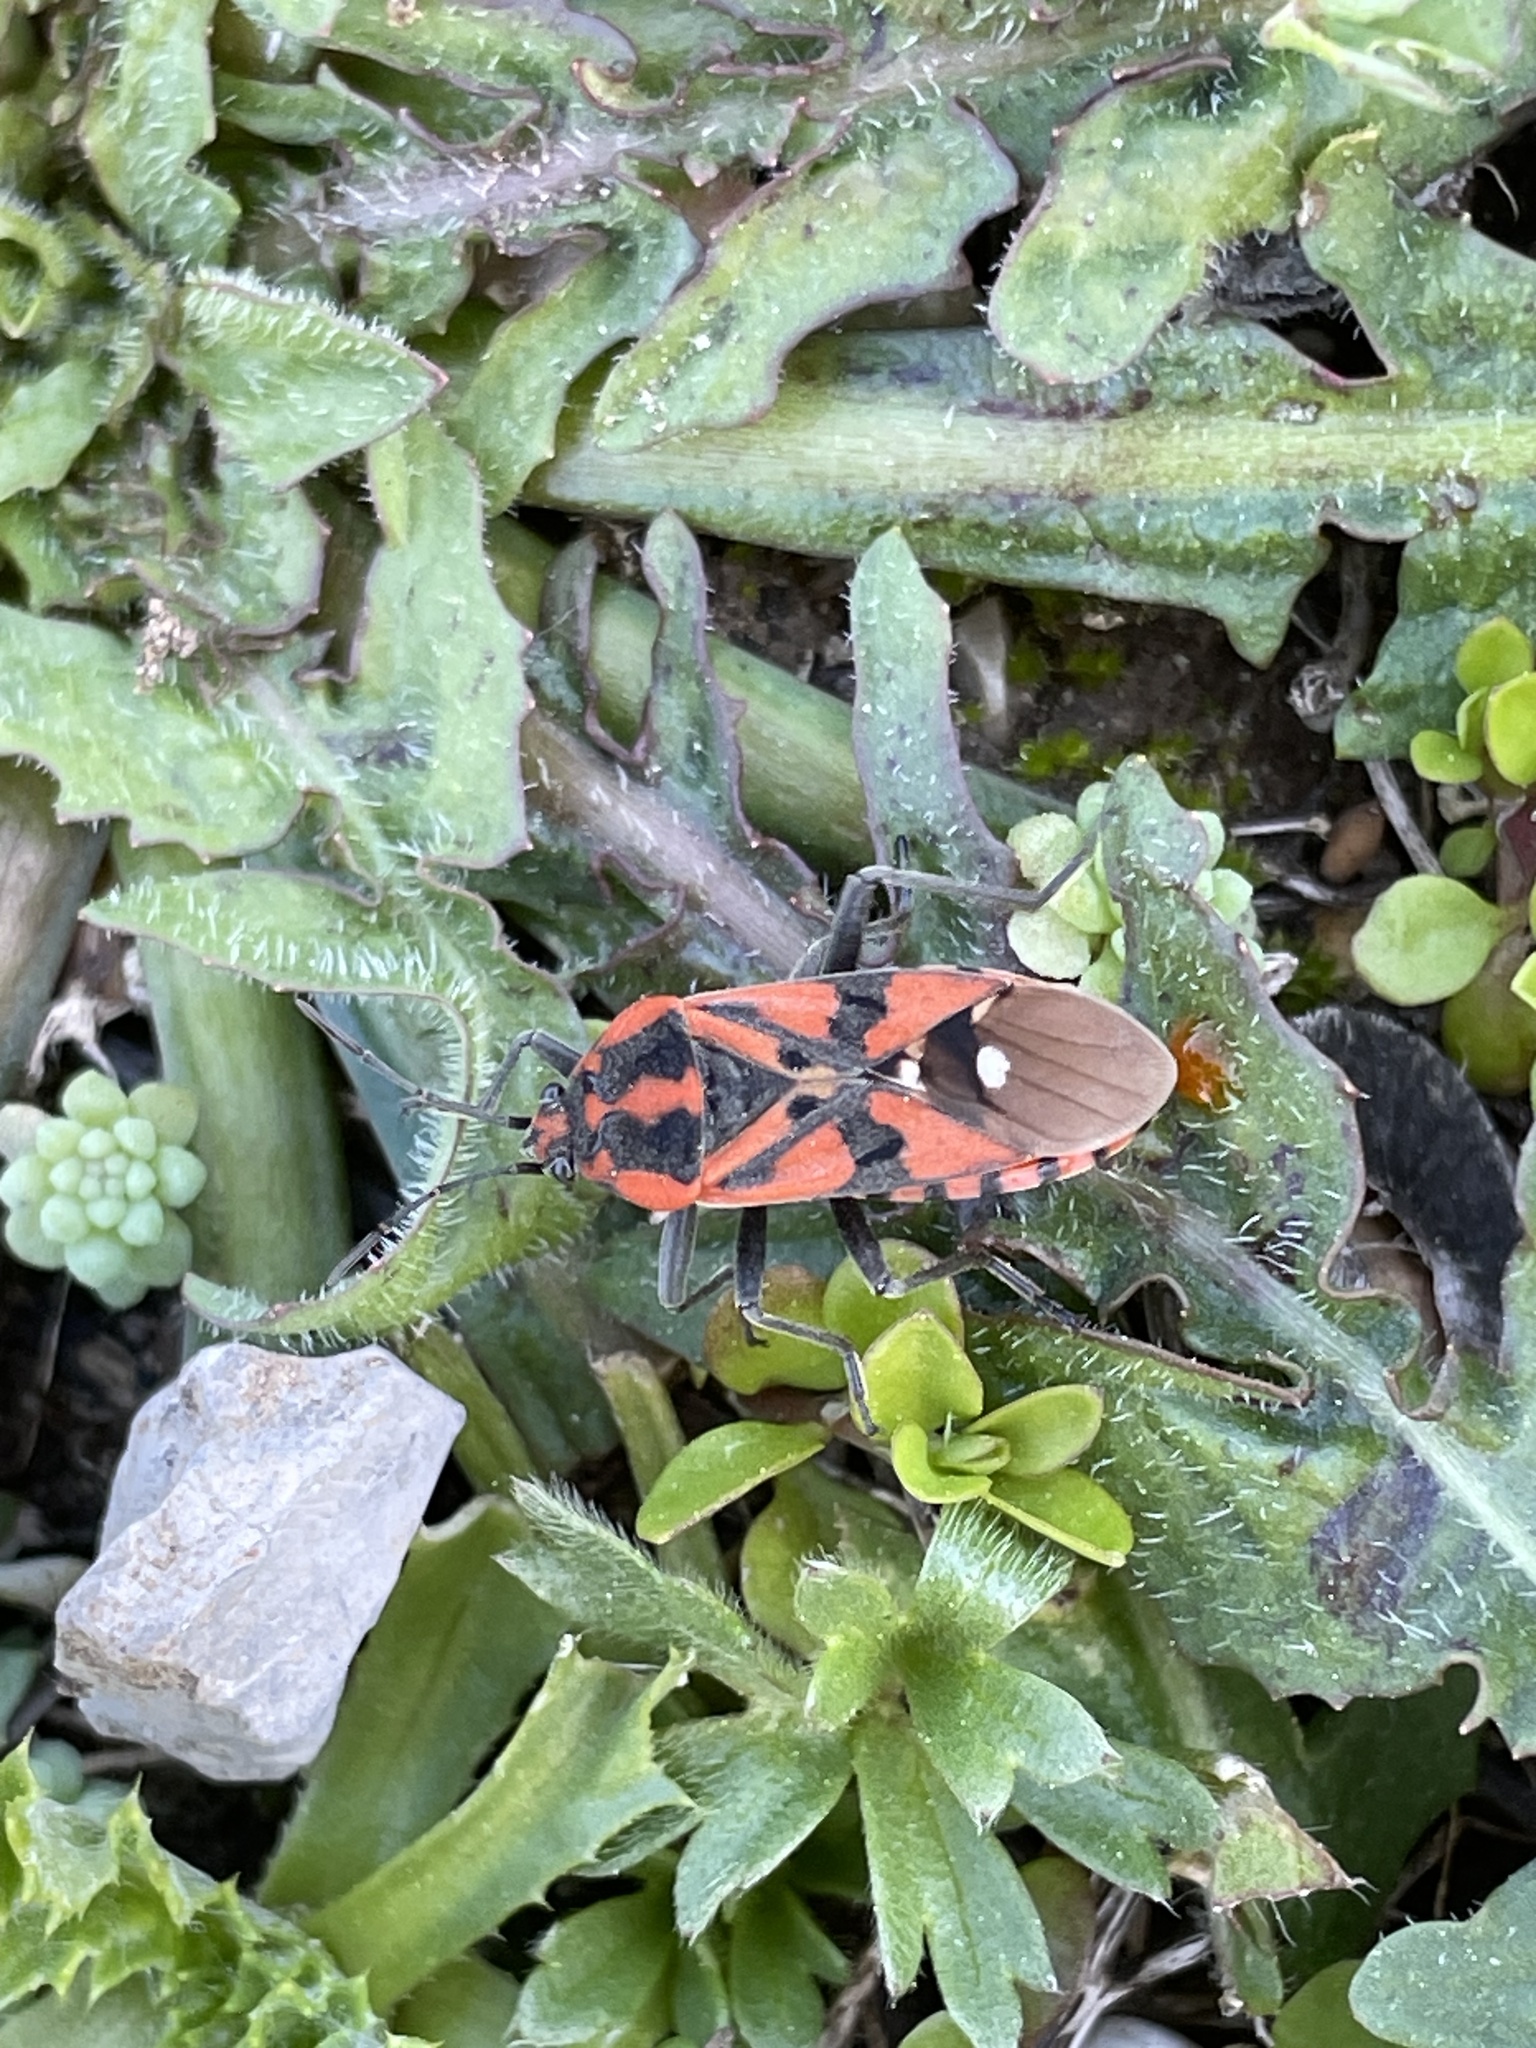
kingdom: Animalia
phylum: Arthropoda
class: Insecta
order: Hemiptera
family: Lygaeidae
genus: Spilostethus
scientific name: Spilostethus pandurus
